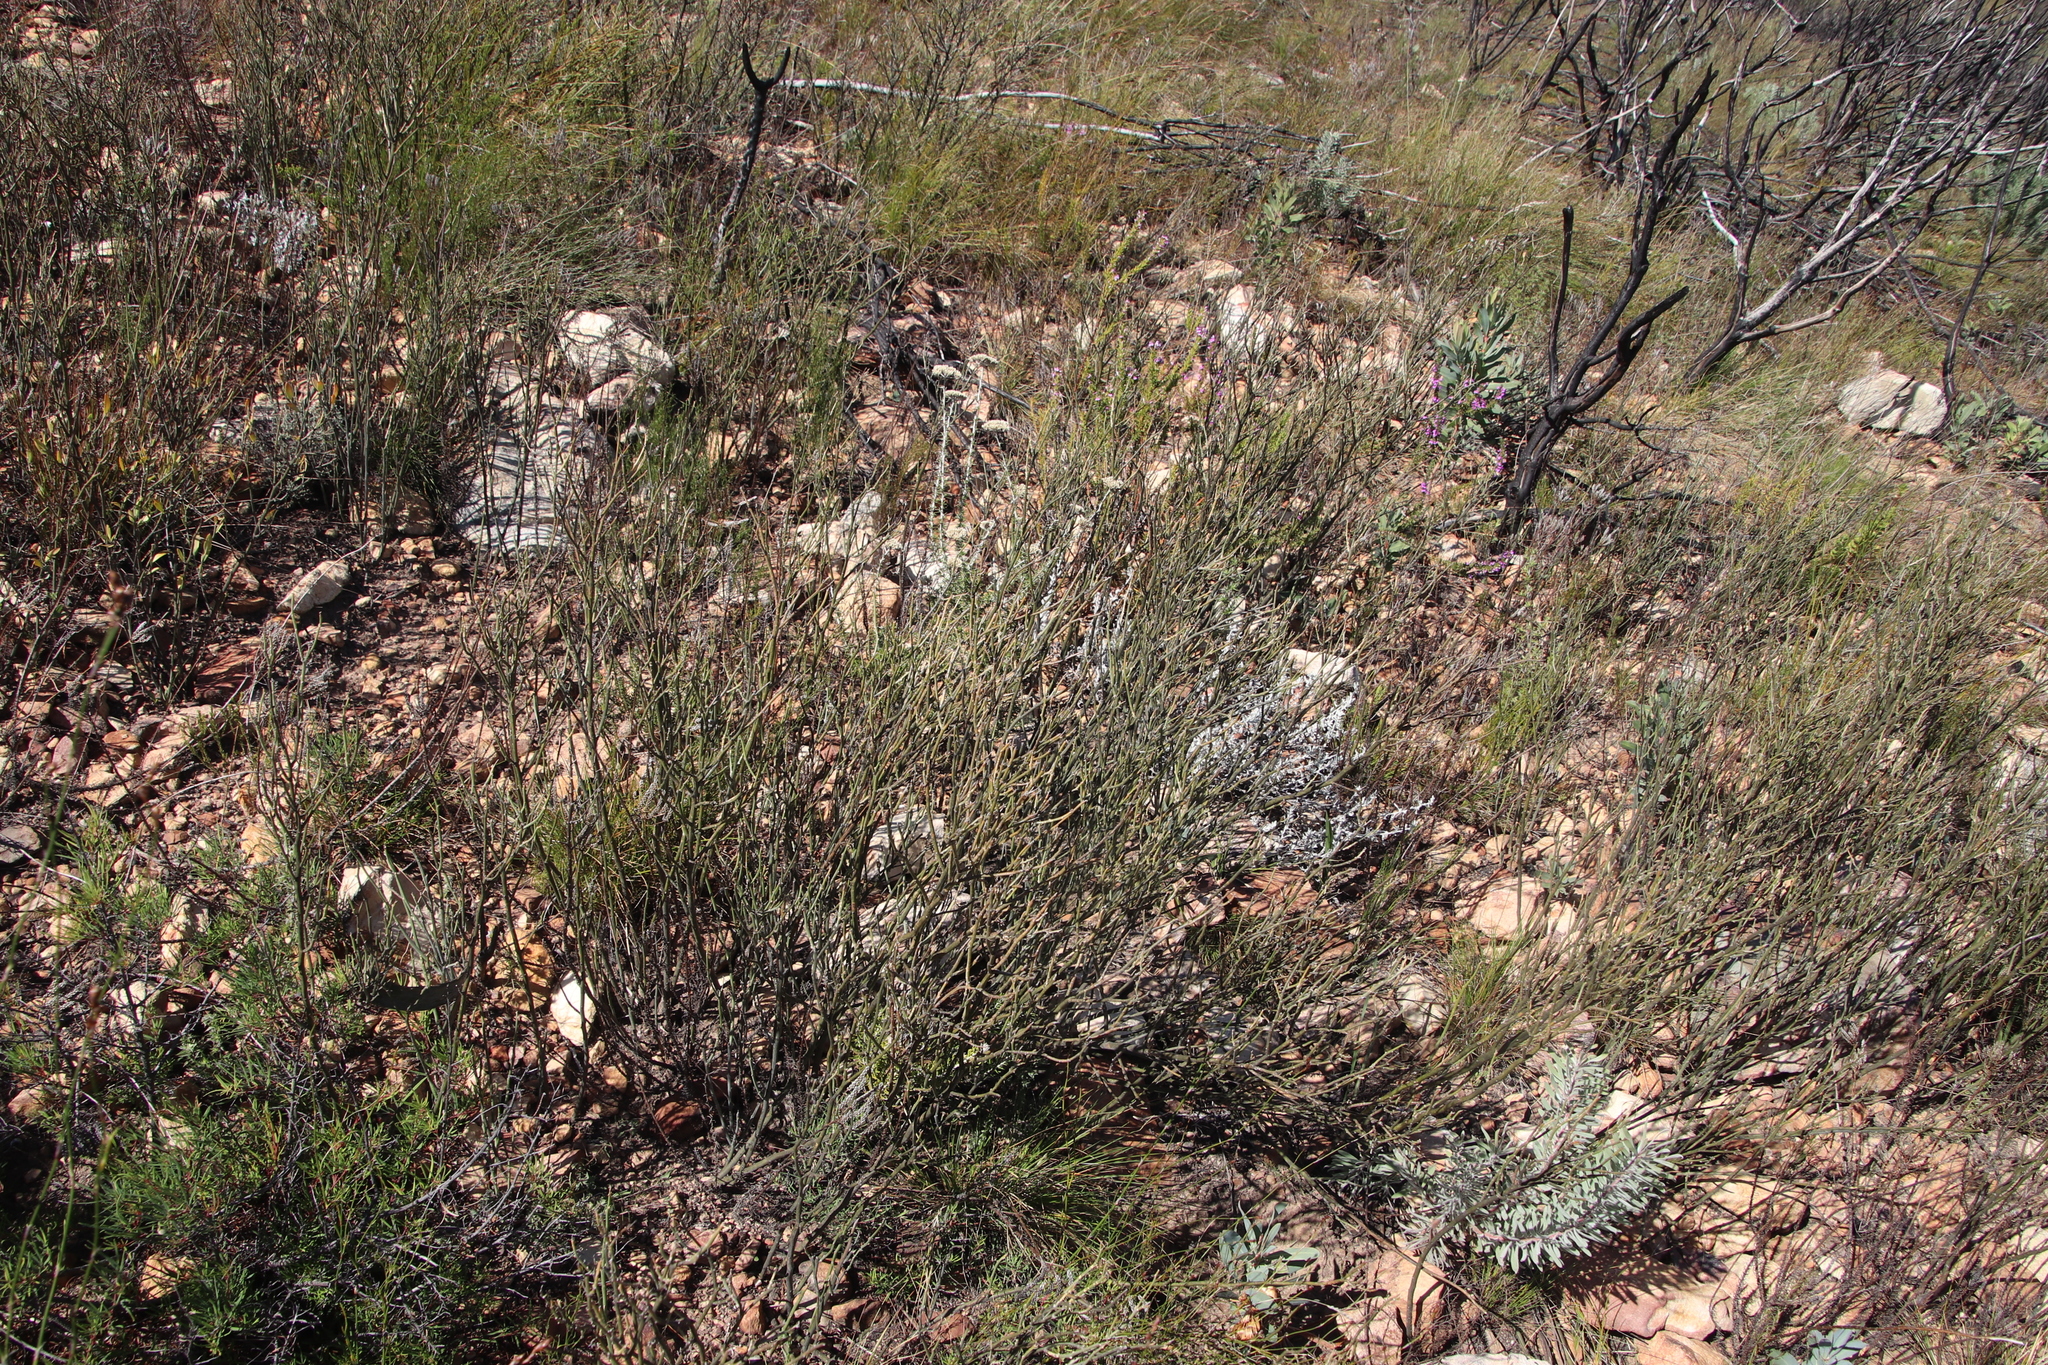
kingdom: Plantae
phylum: Tracheophyta
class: Magnoliopsida
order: Solanales
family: Montiniaceae
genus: Montinia
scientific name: Montinia caryophyllacea
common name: Wild clove-bush
